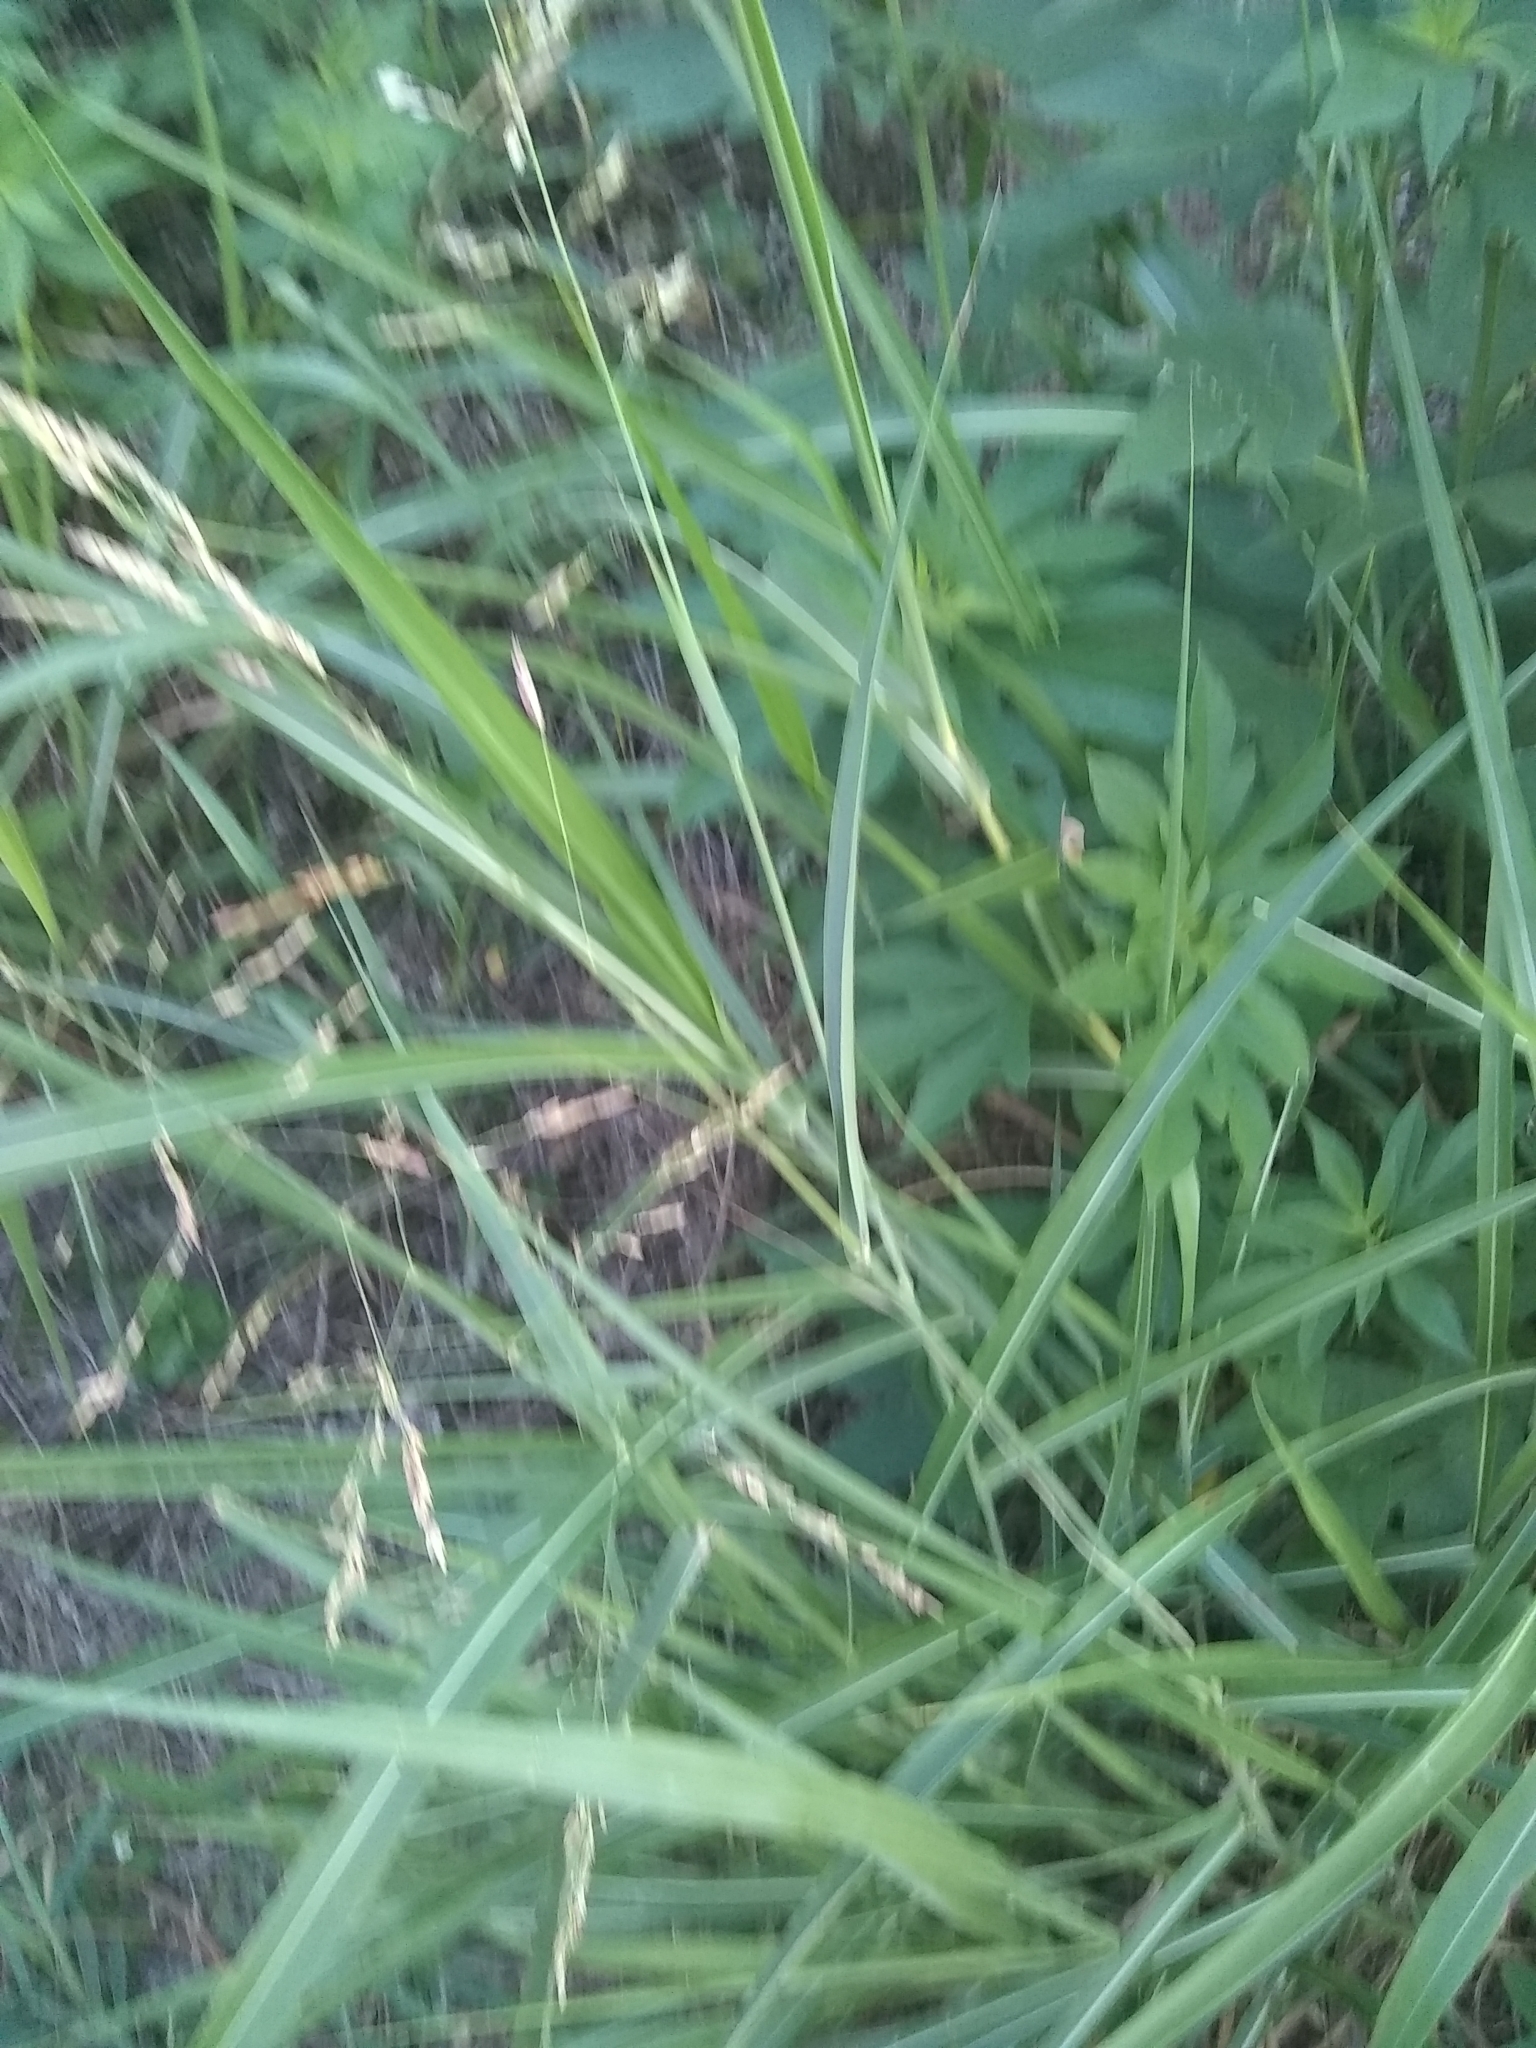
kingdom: Plantae
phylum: Tracheophyta
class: Liliopsida
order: Poales
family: Poaceae
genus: Sorghum
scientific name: Sorghum halepense
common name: Johnson-grass
